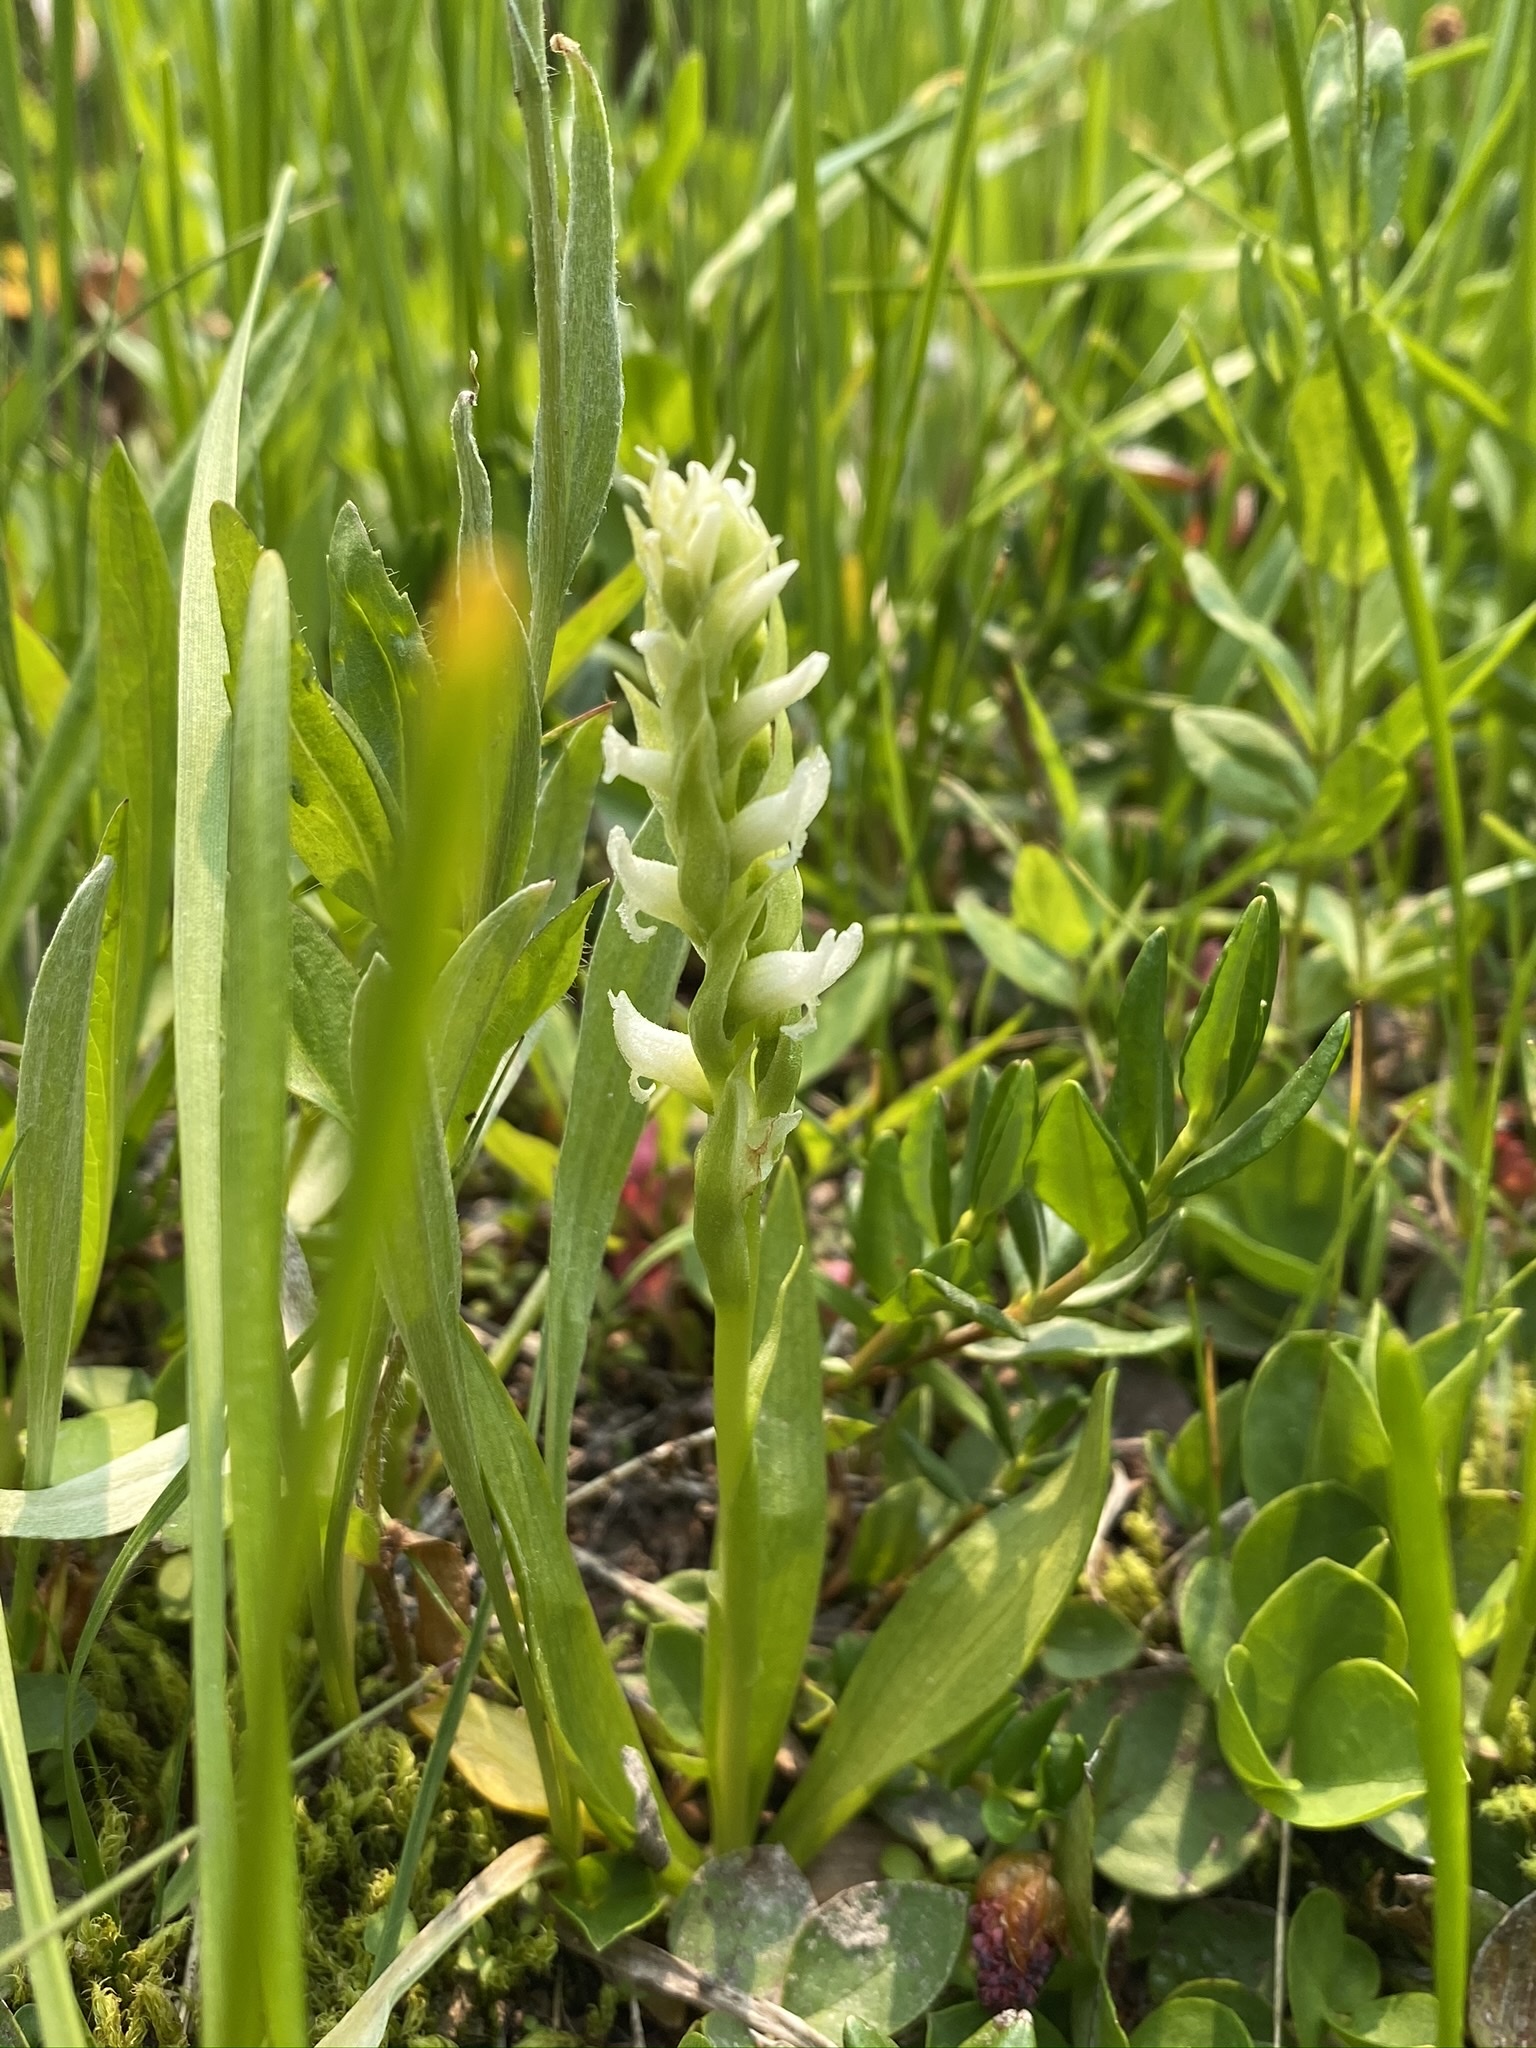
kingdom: Plantae
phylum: Tracheophyta
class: Liliopsida
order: Asparagales
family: Orchidaceae
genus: Spiranthes
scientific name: Spiranthes romanzoffiana
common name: Irish lady's-tresses
